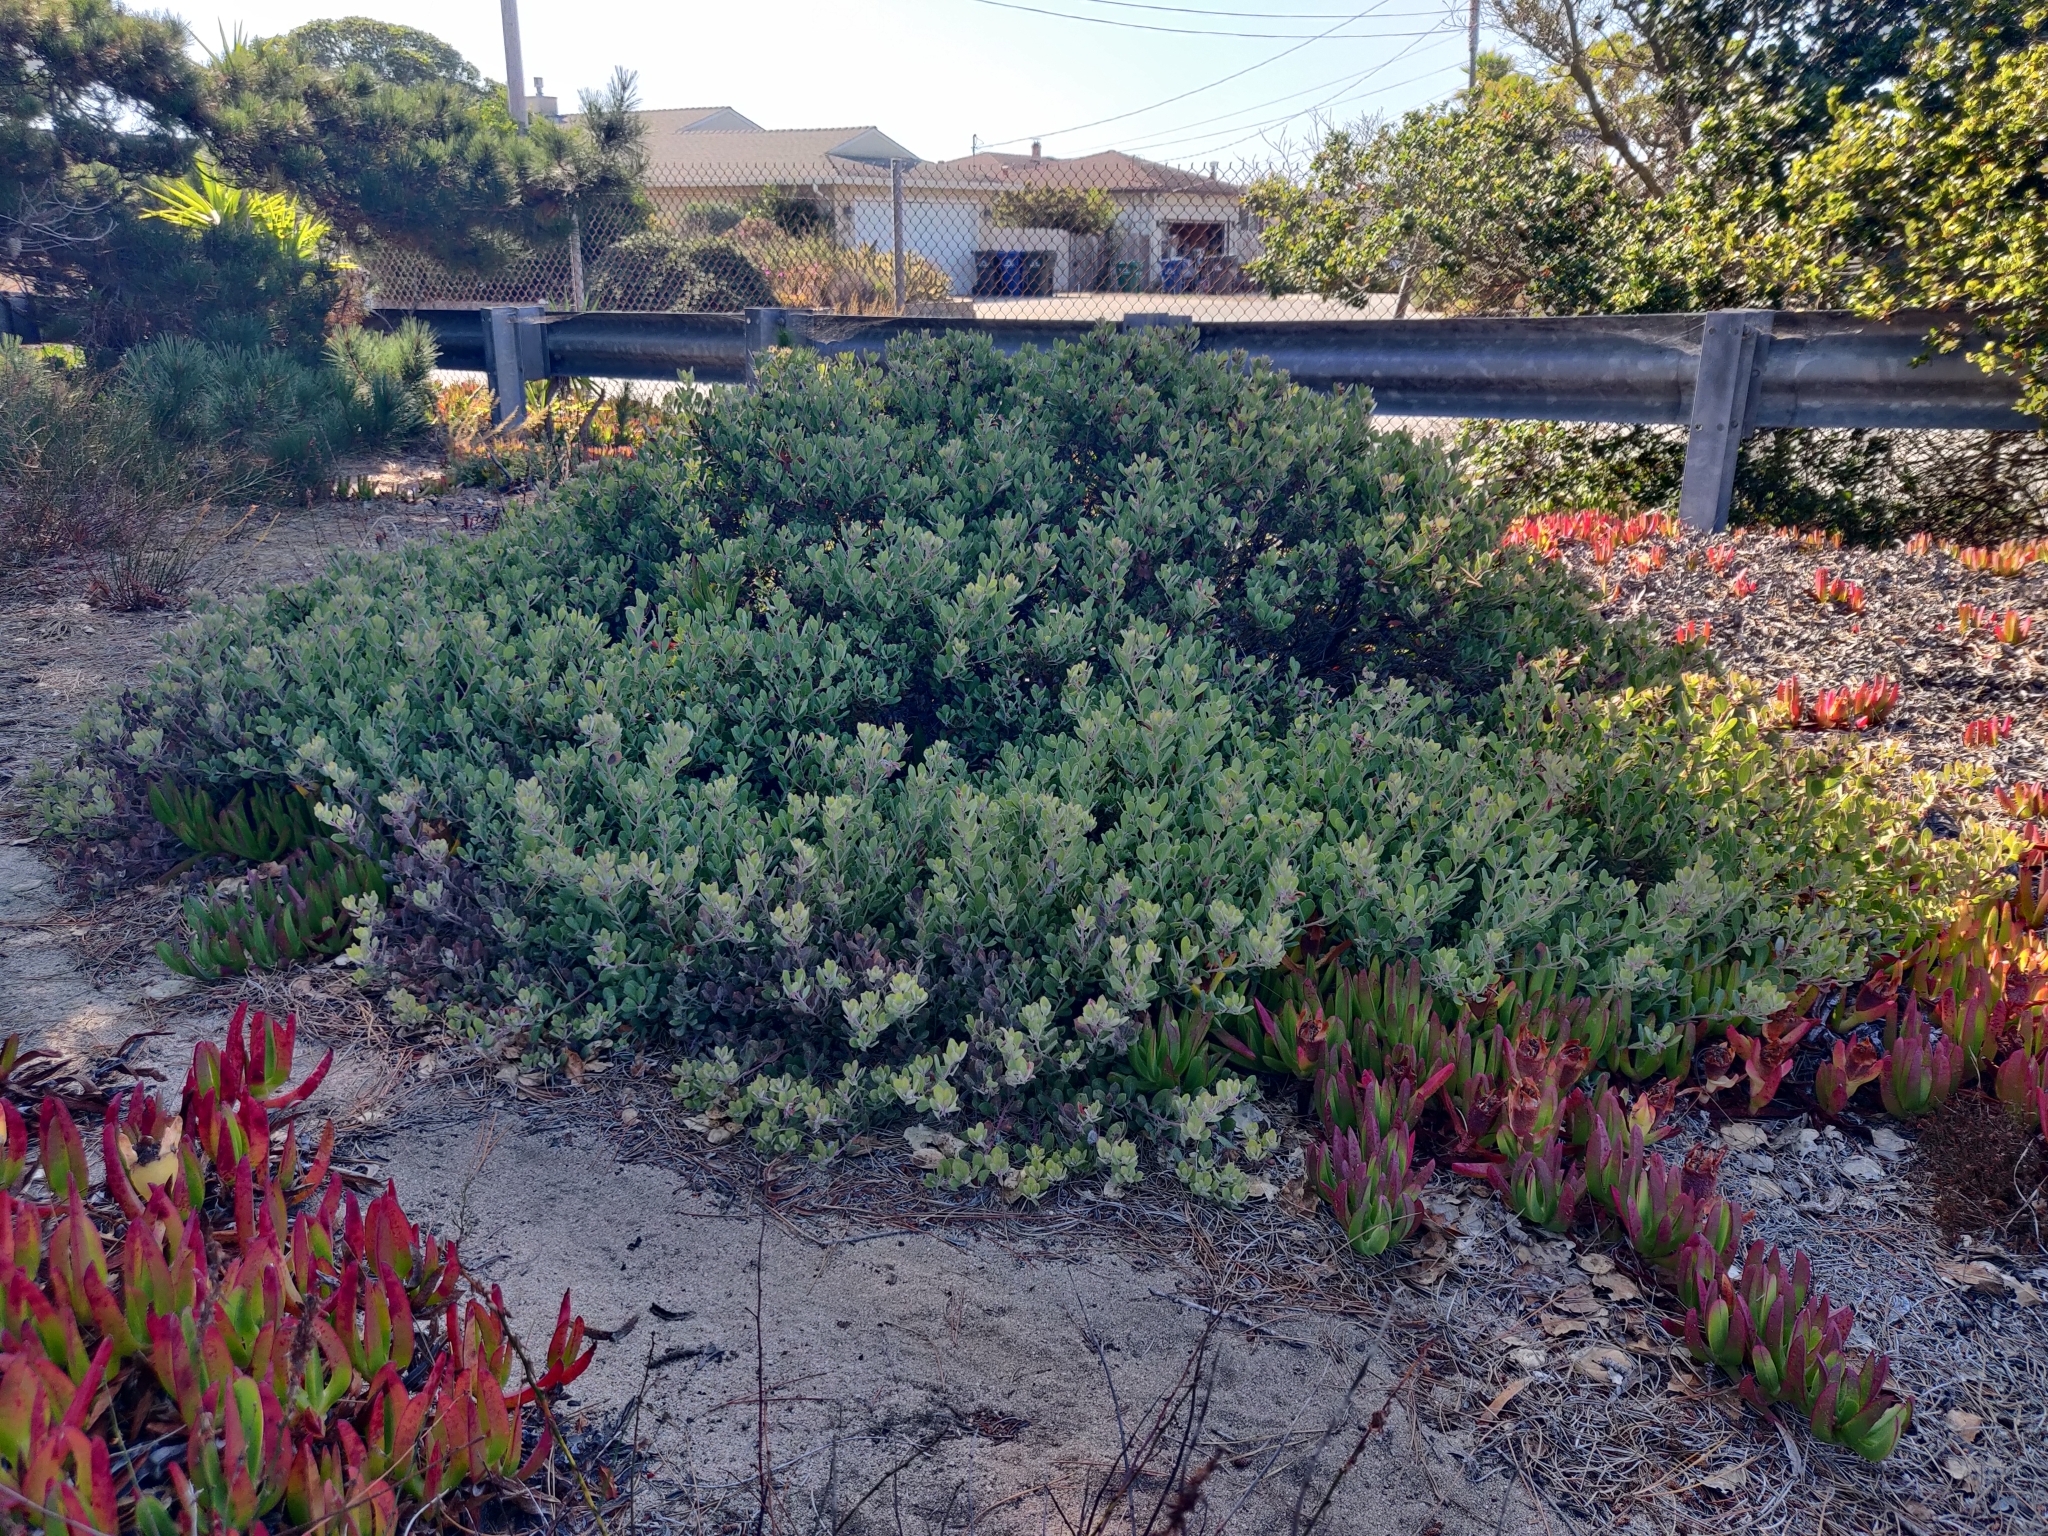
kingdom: Plantae
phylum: Tracheophyta
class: Magnoliopsida
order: Ericales
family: Ericaceae
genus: Arctostaphylos
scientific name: Arctostaphylos pumila
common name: Sandmat manzanita
